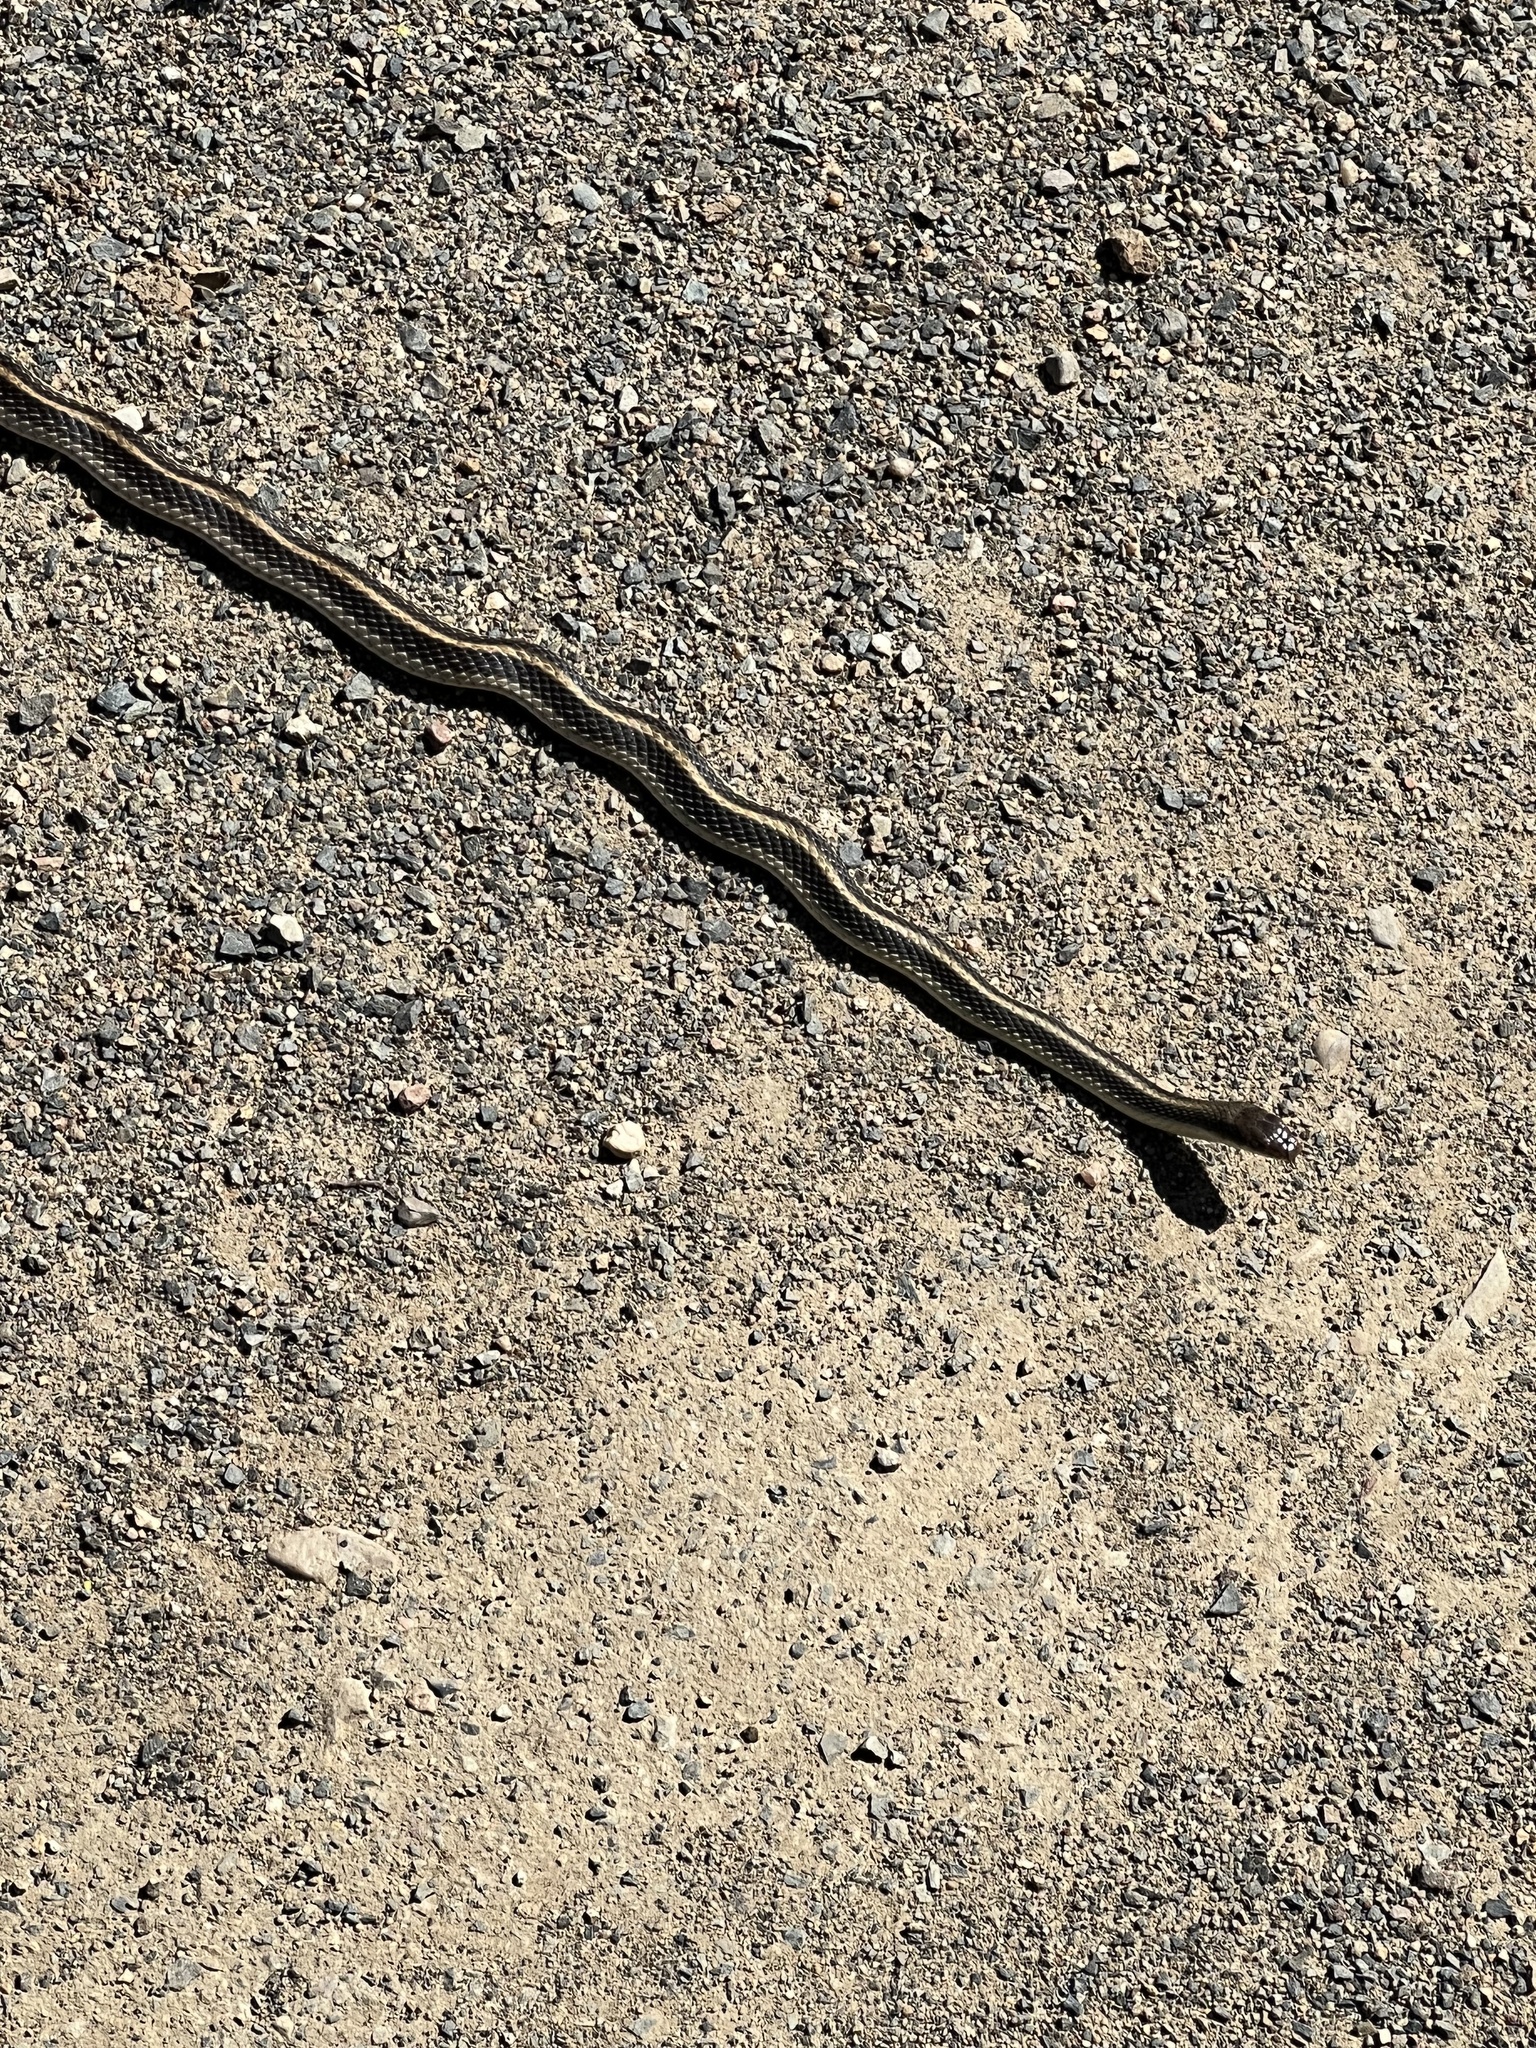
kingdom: Animalia
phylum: Chordata
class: Squamata
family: Colubridae
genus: Salvadora
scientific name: Salvadora hexalepis
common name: Western patchnose snake
